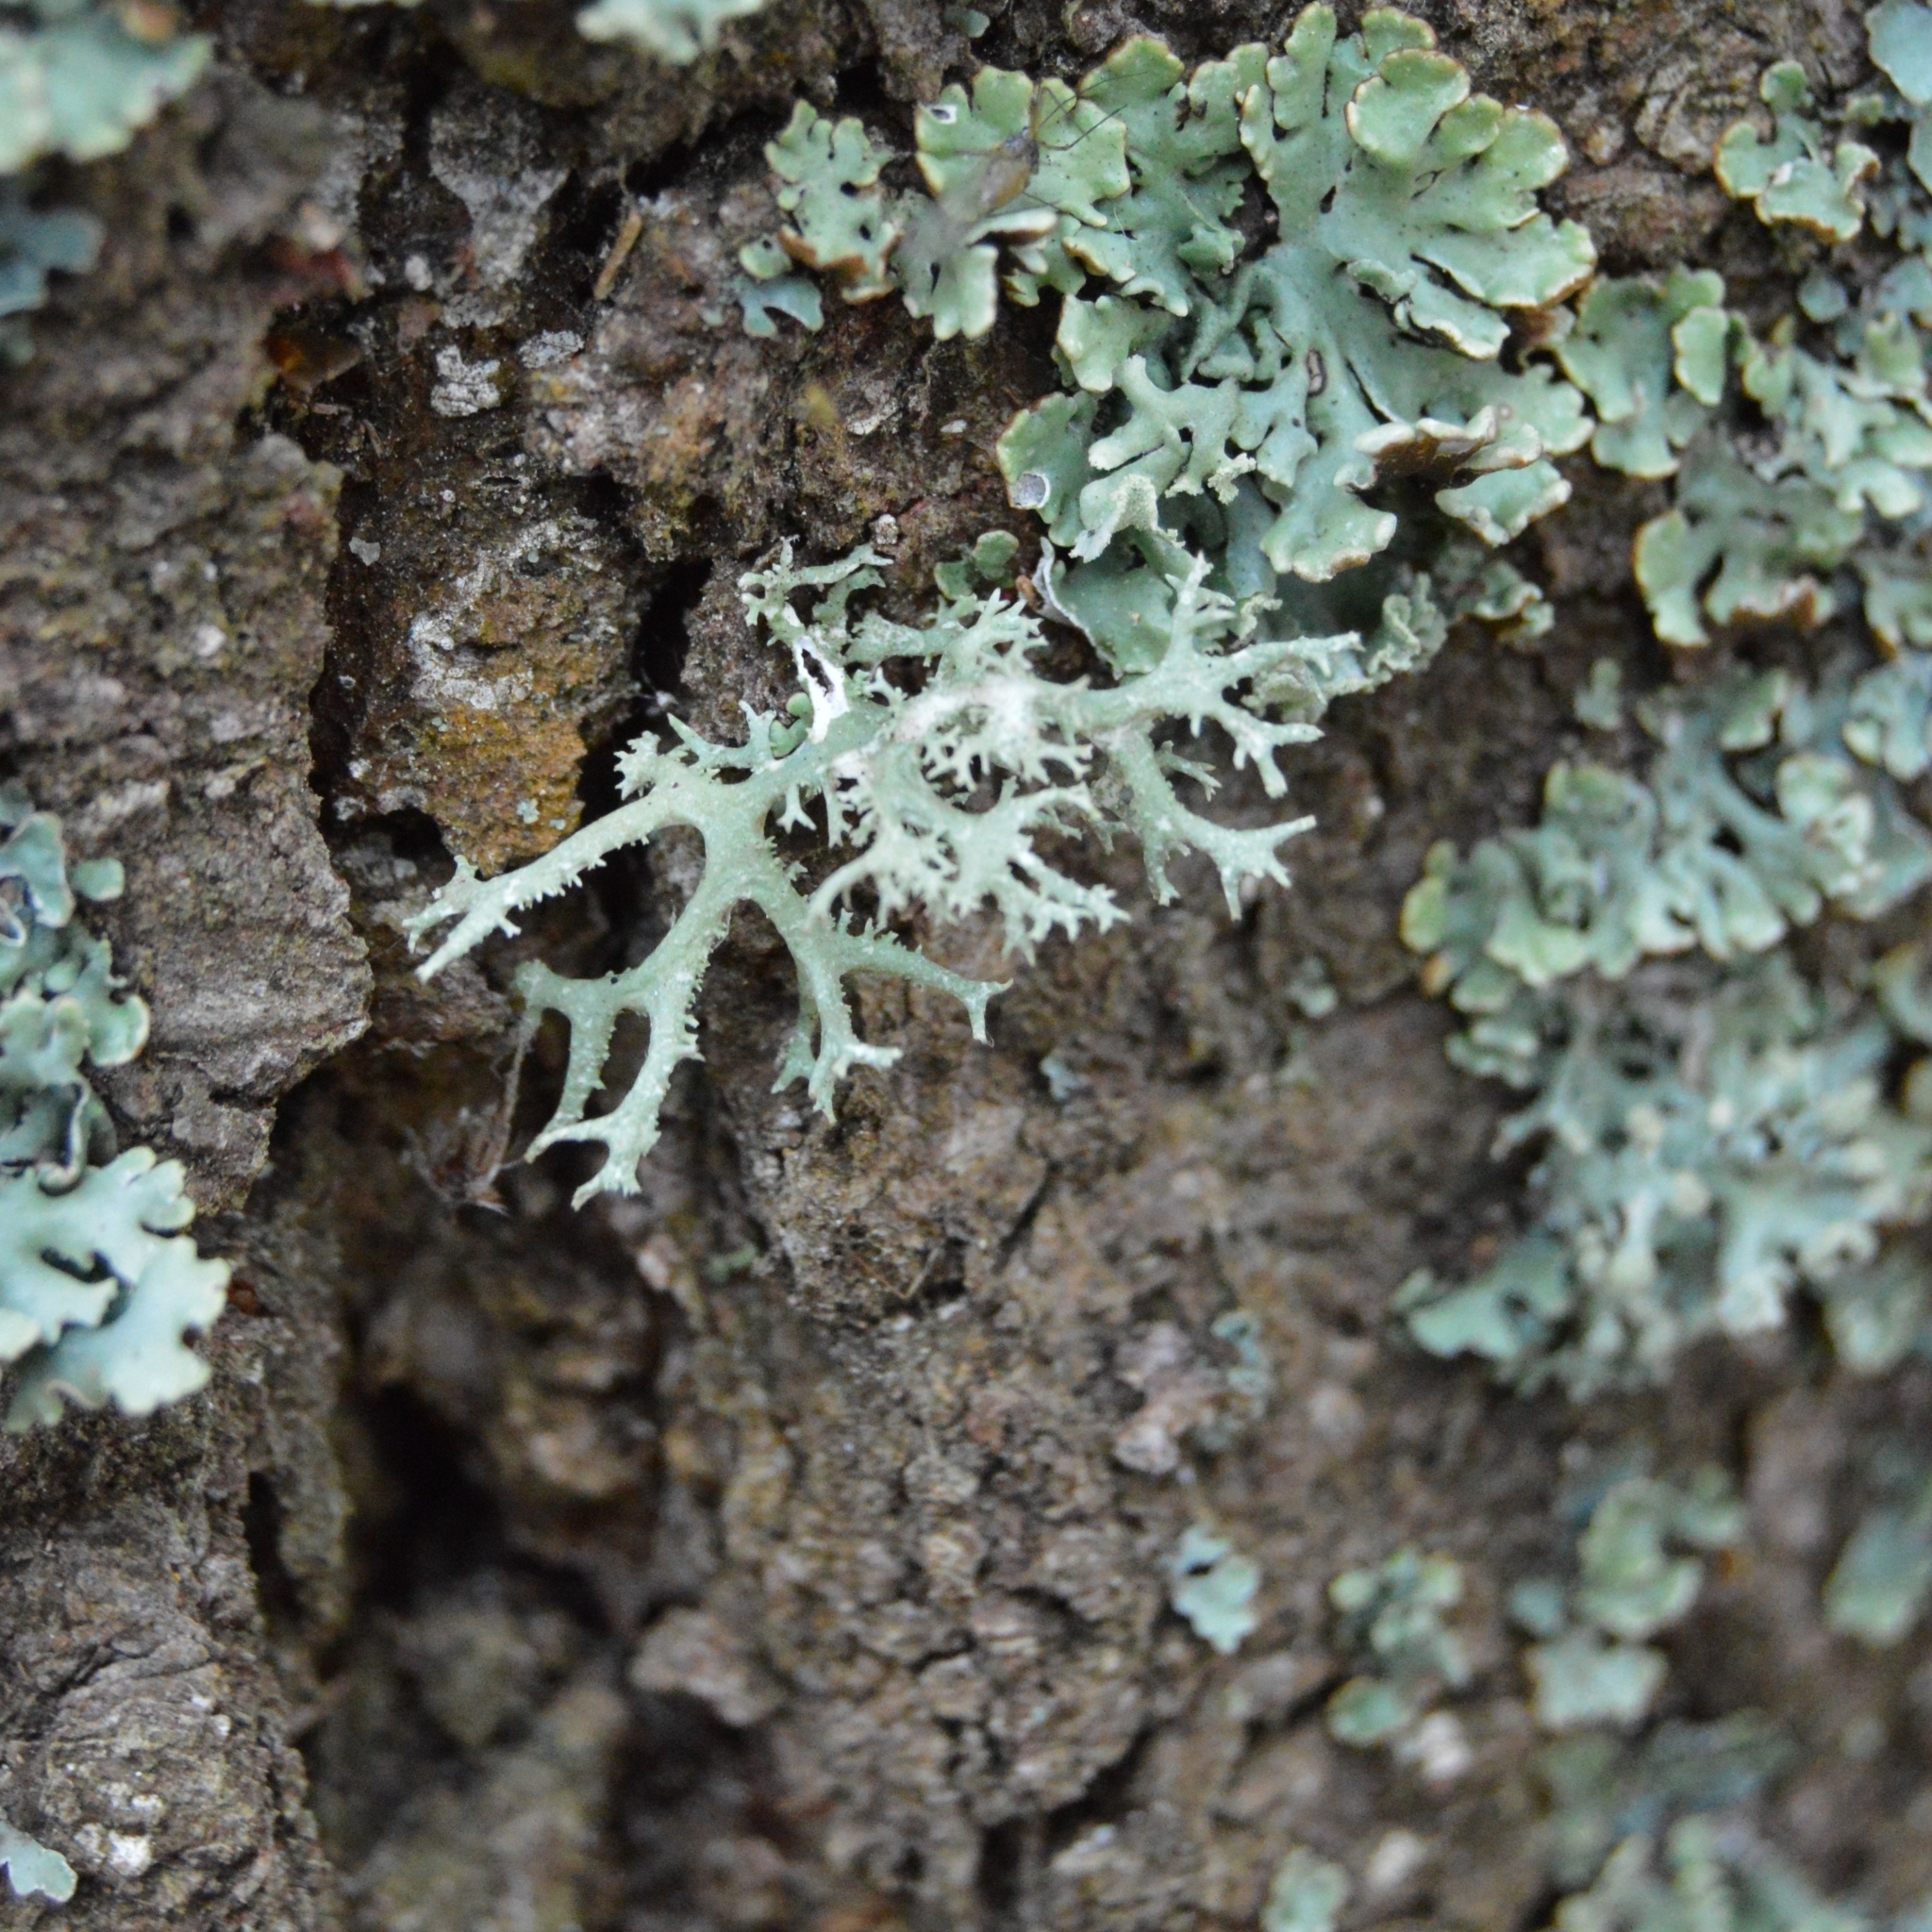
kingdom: Fungi
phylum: Ascomycota
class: Lecanoromycetes
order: Lecanorales
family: Parmeliaceae
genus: Evernia
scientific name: Evernia prunastri
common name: Oak moss
